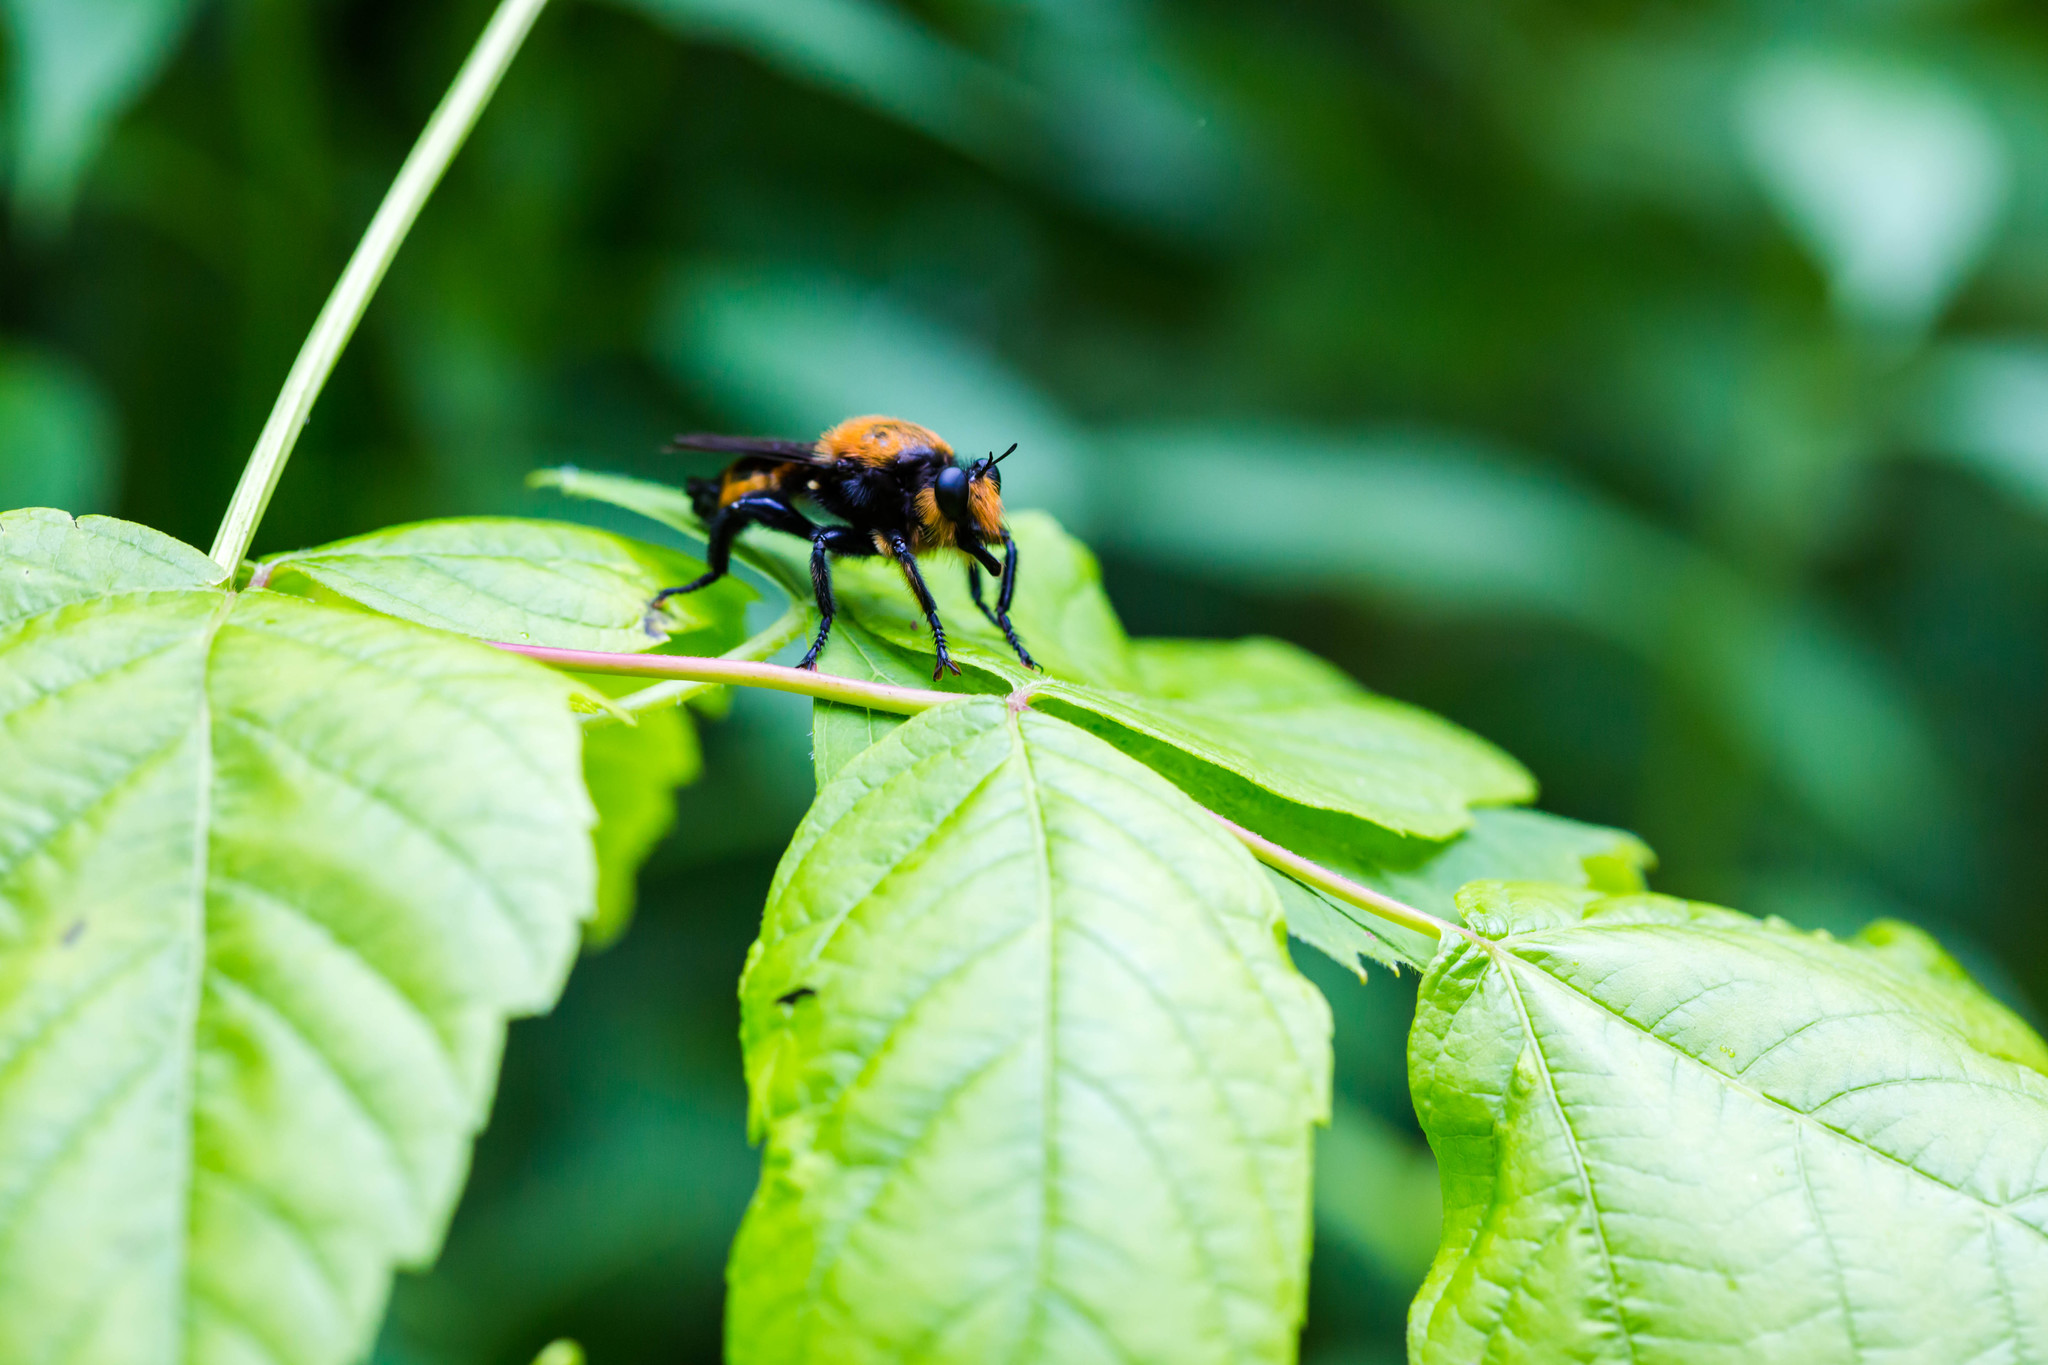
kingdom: Animalia
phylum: Arthropoda
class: Insecta
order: Diptera
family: Asilidae
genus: Laphria
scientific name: Laphria lata
